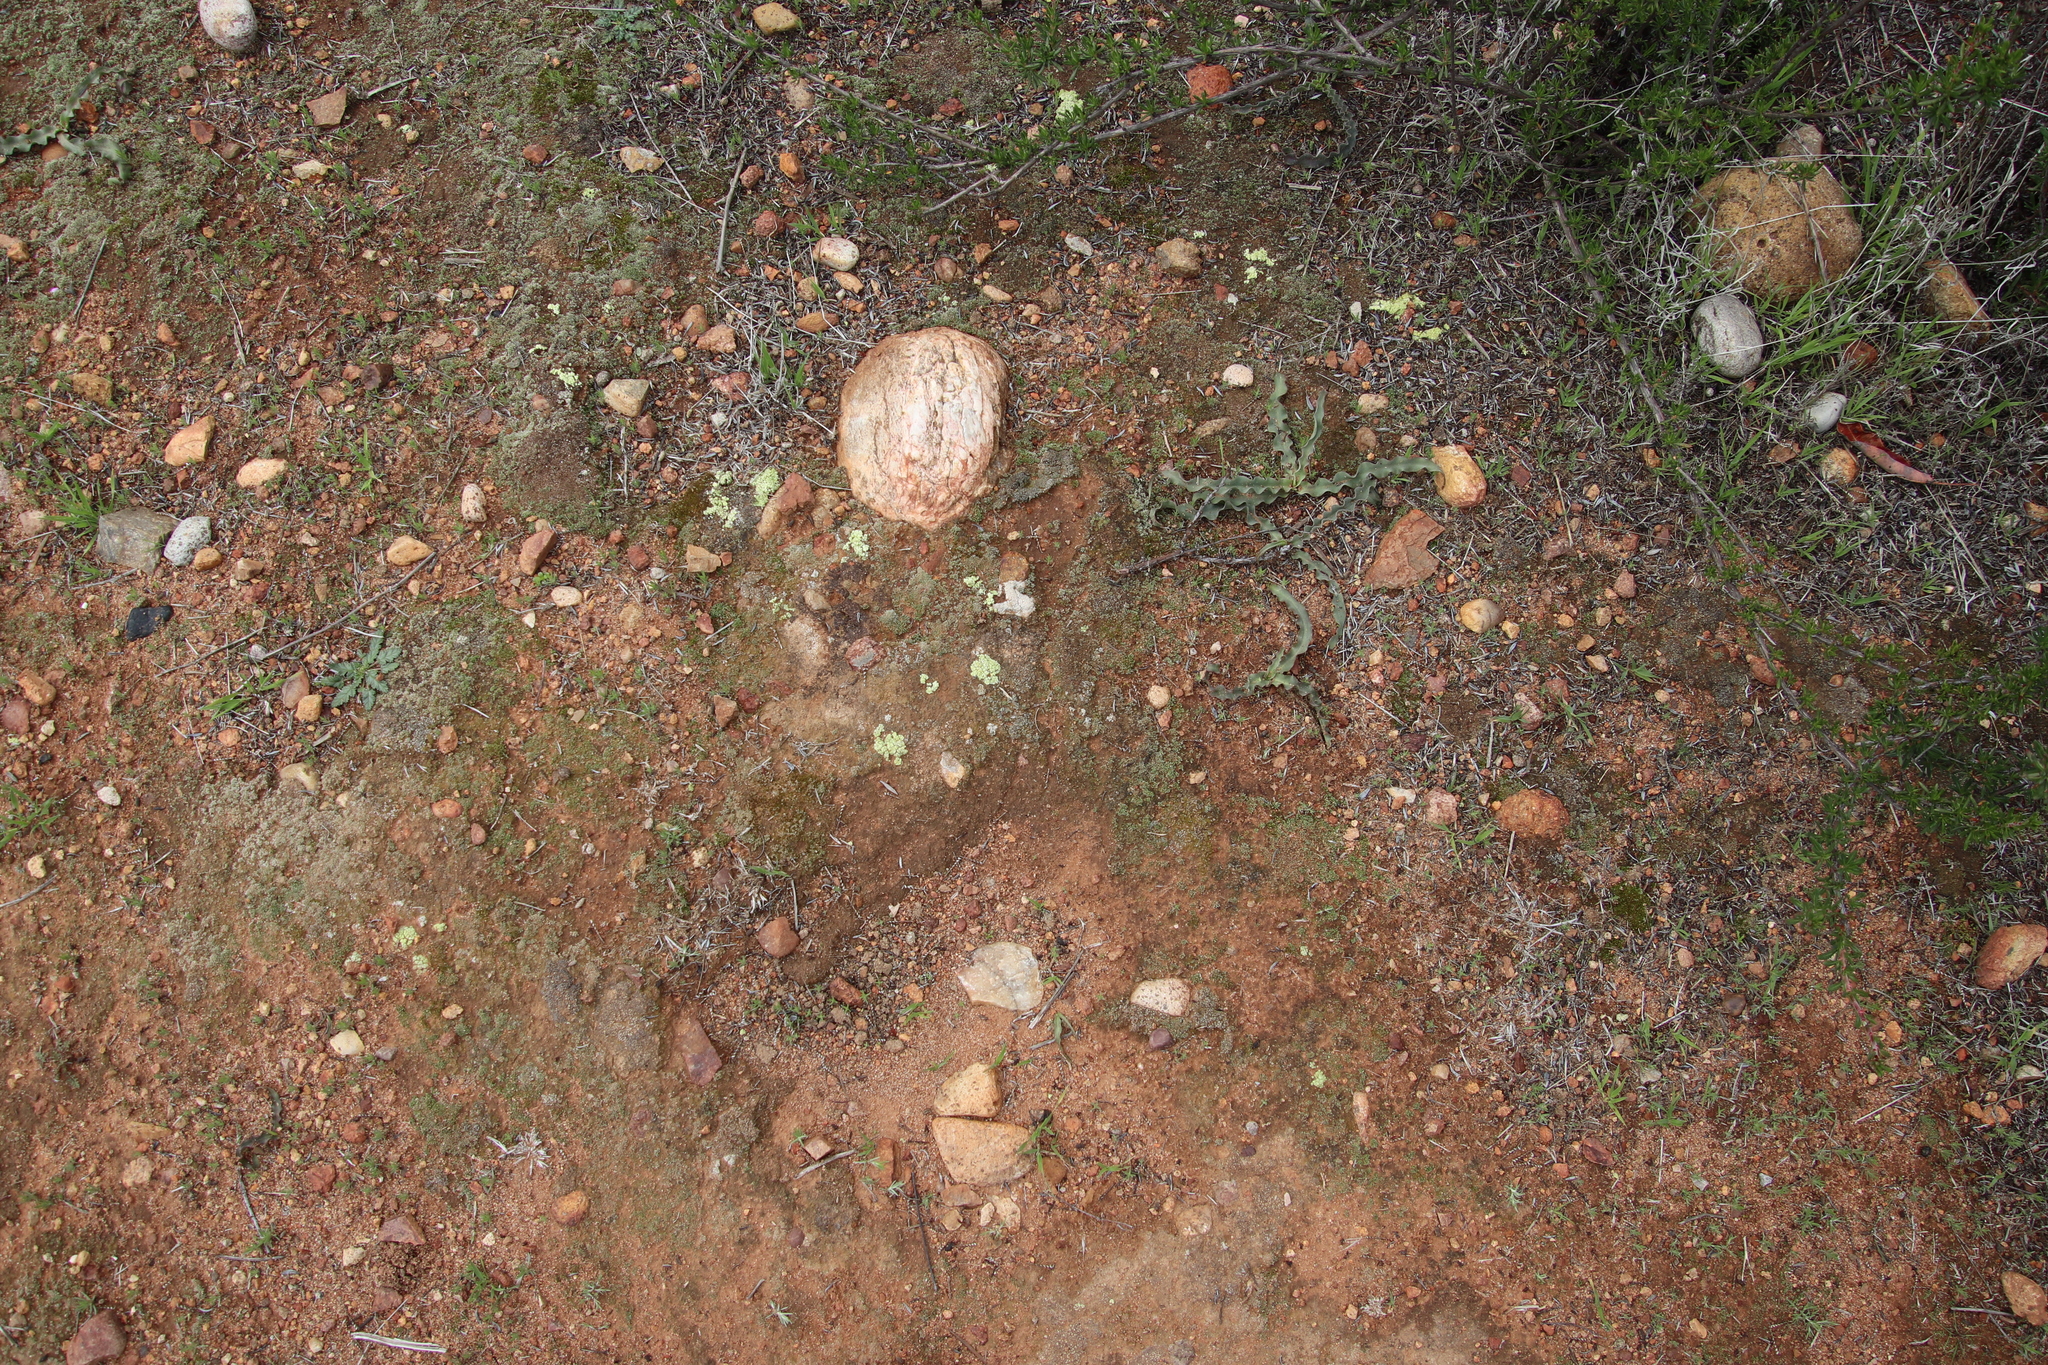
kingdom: Fungi
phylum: Ascomycota
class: Lecanoromycetes
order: Acarosporales
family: Acarosporaceae
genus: Acarospora
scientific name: Acarospora schleicheri
